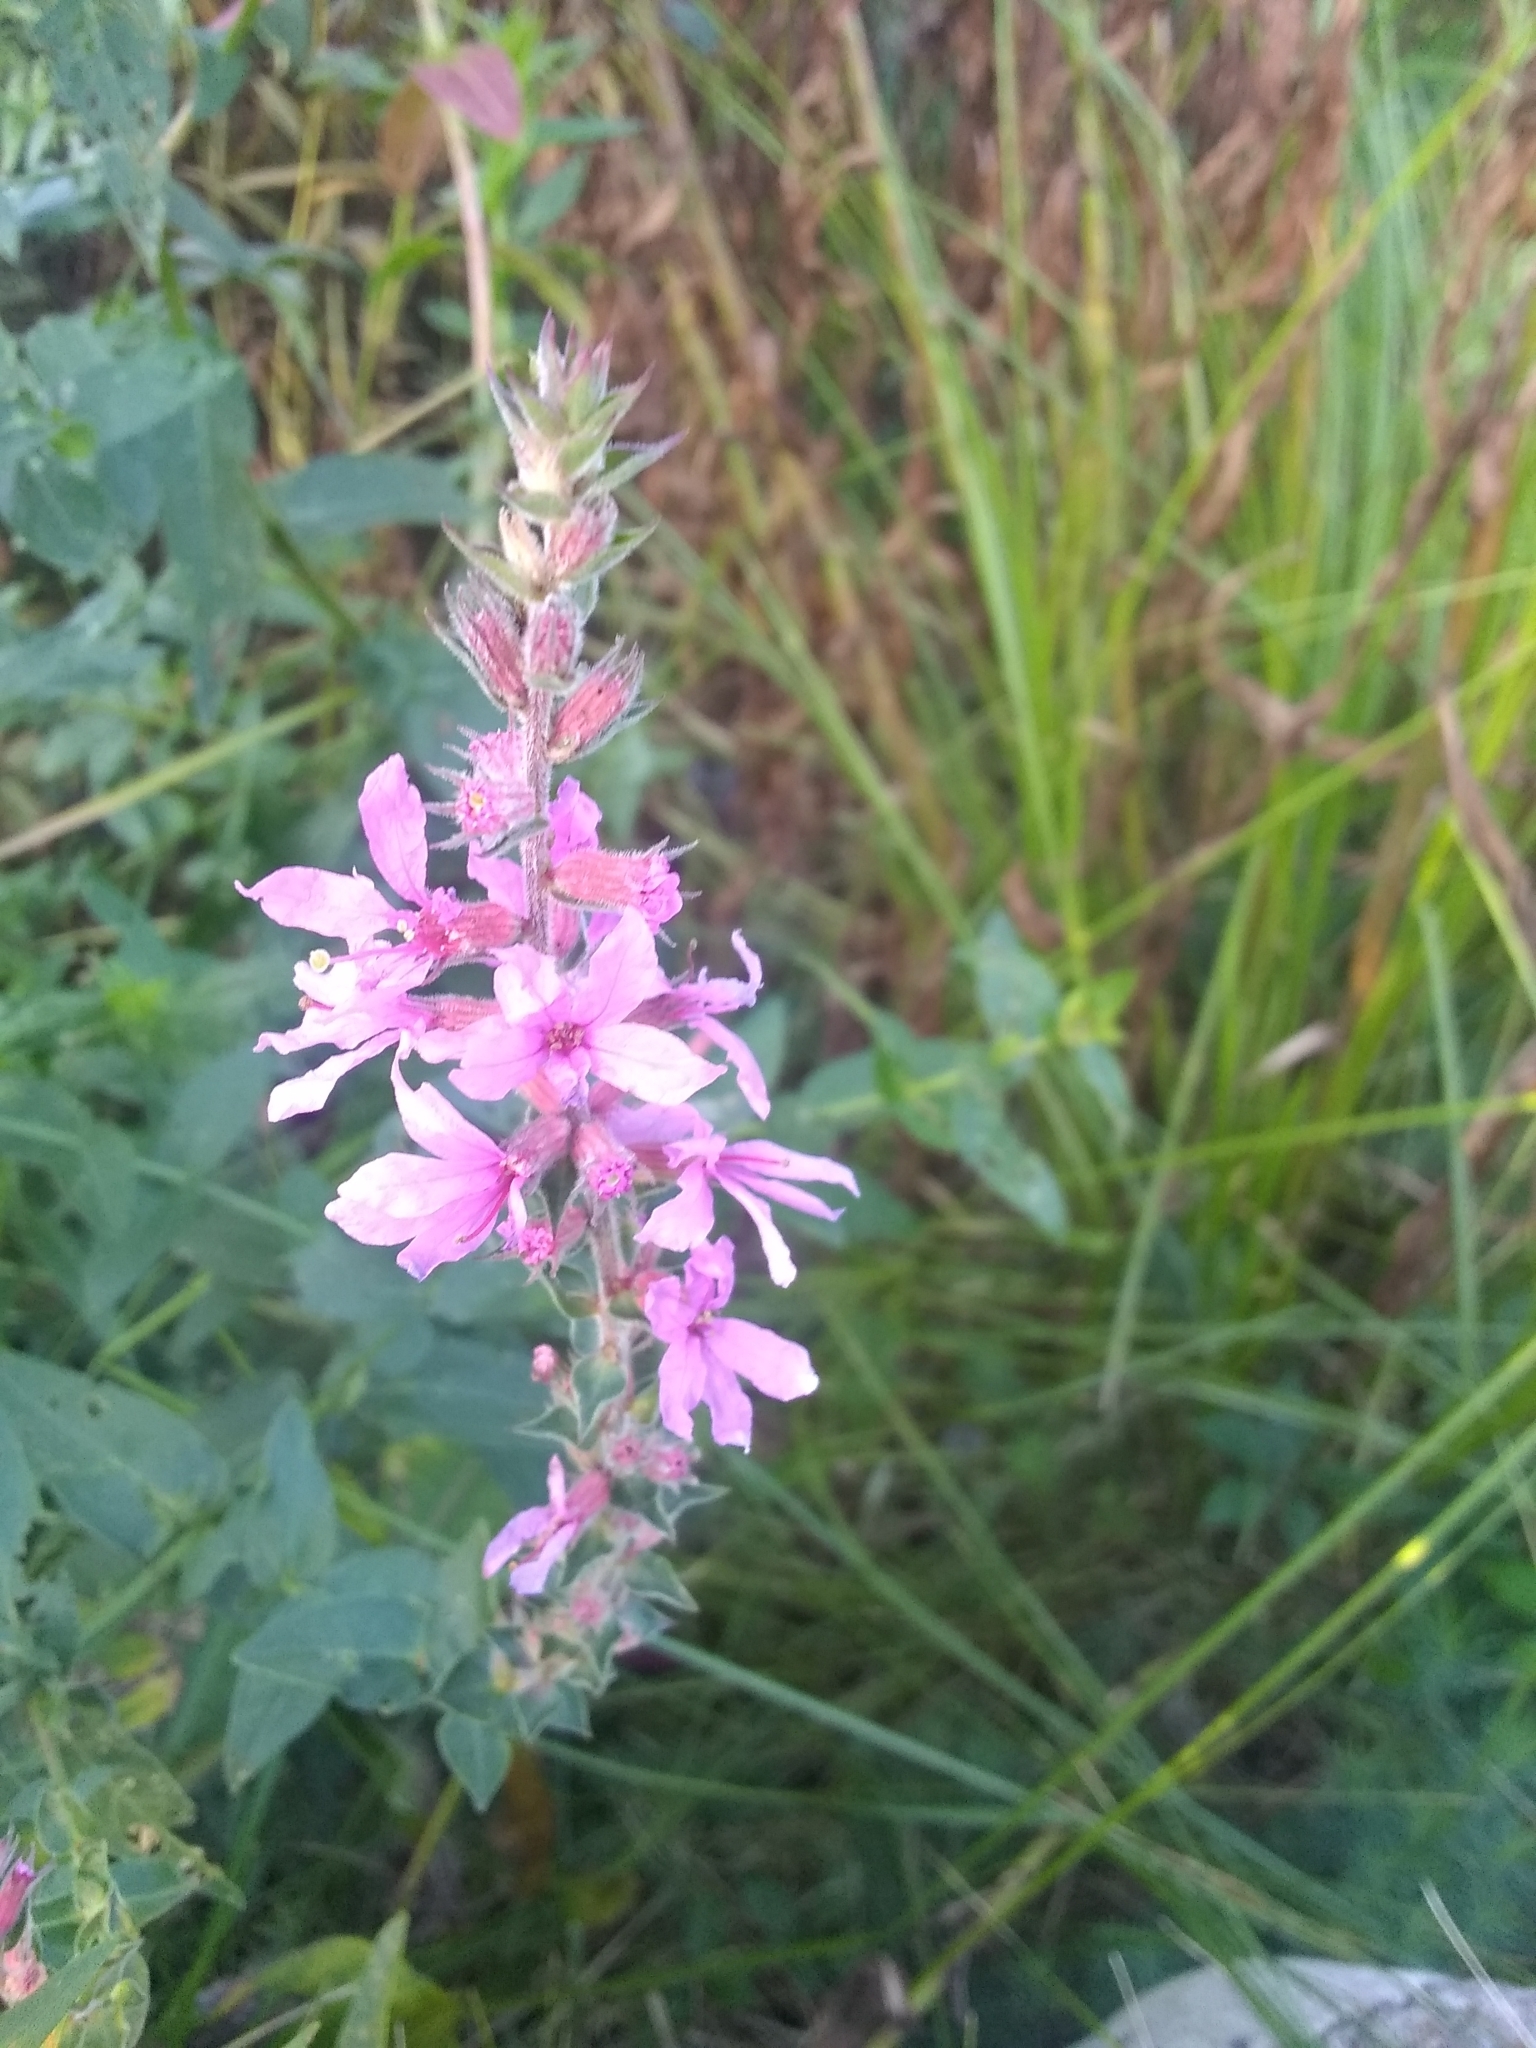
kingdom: Plantae
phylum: Tracheophyta
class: Magnoliopsida
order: Myrtales
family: Lythraceae
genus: Lythrum
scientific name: Lythrum salicaria
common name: Purple loosestrife
